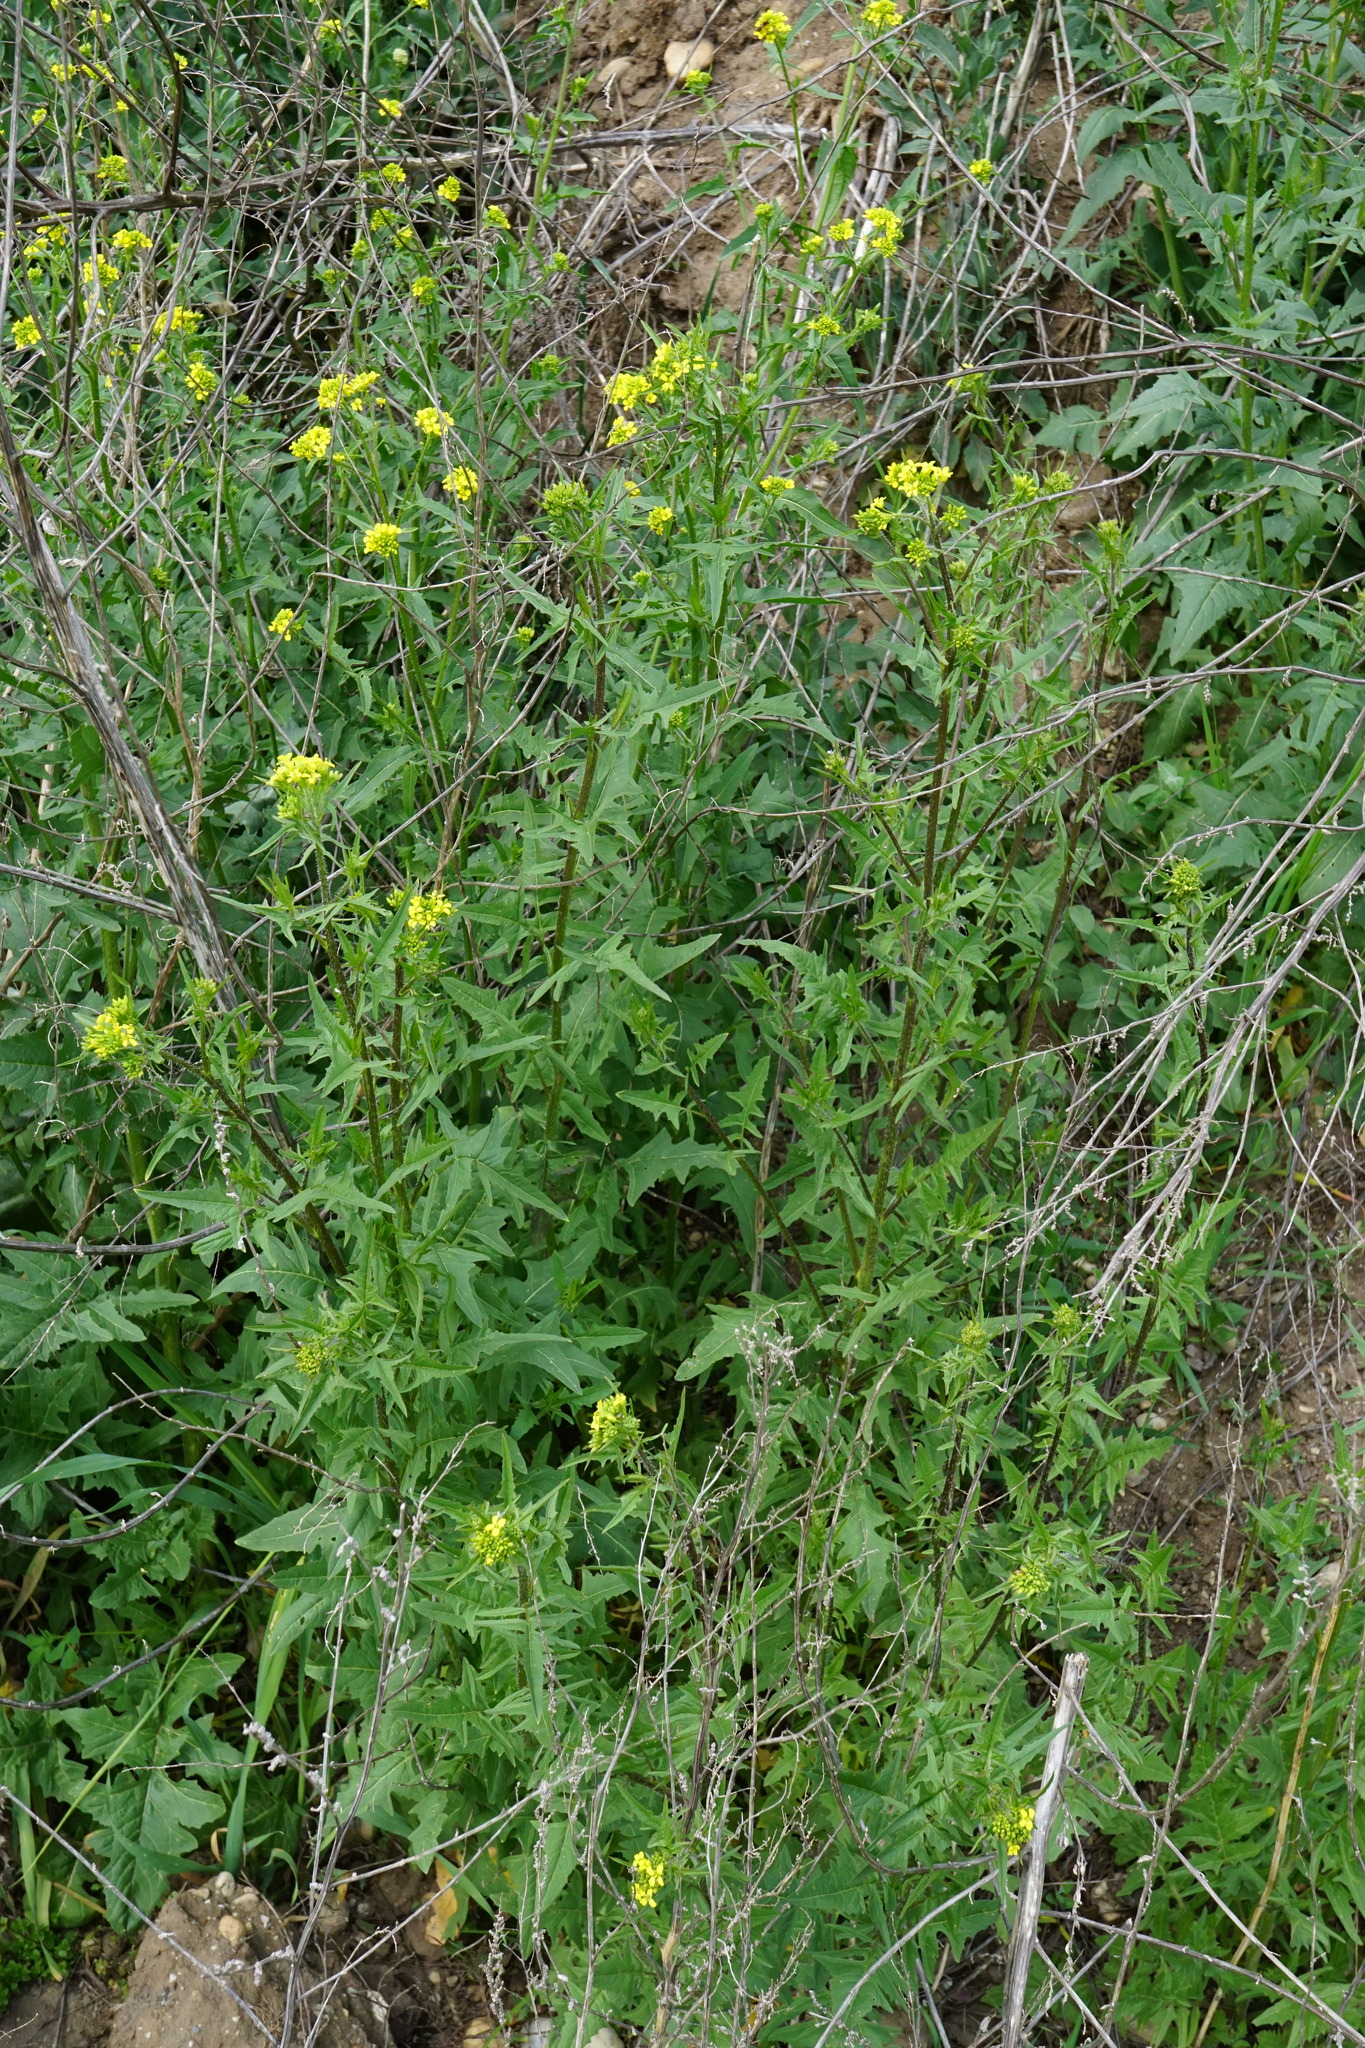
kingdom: Plantae
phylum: Tracheophyta
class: Magnoliopsida
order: Brassicales
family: Brassicaceae
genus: Sisymbrium
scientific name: Sisymbrium loeselii
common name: False london-rocket
